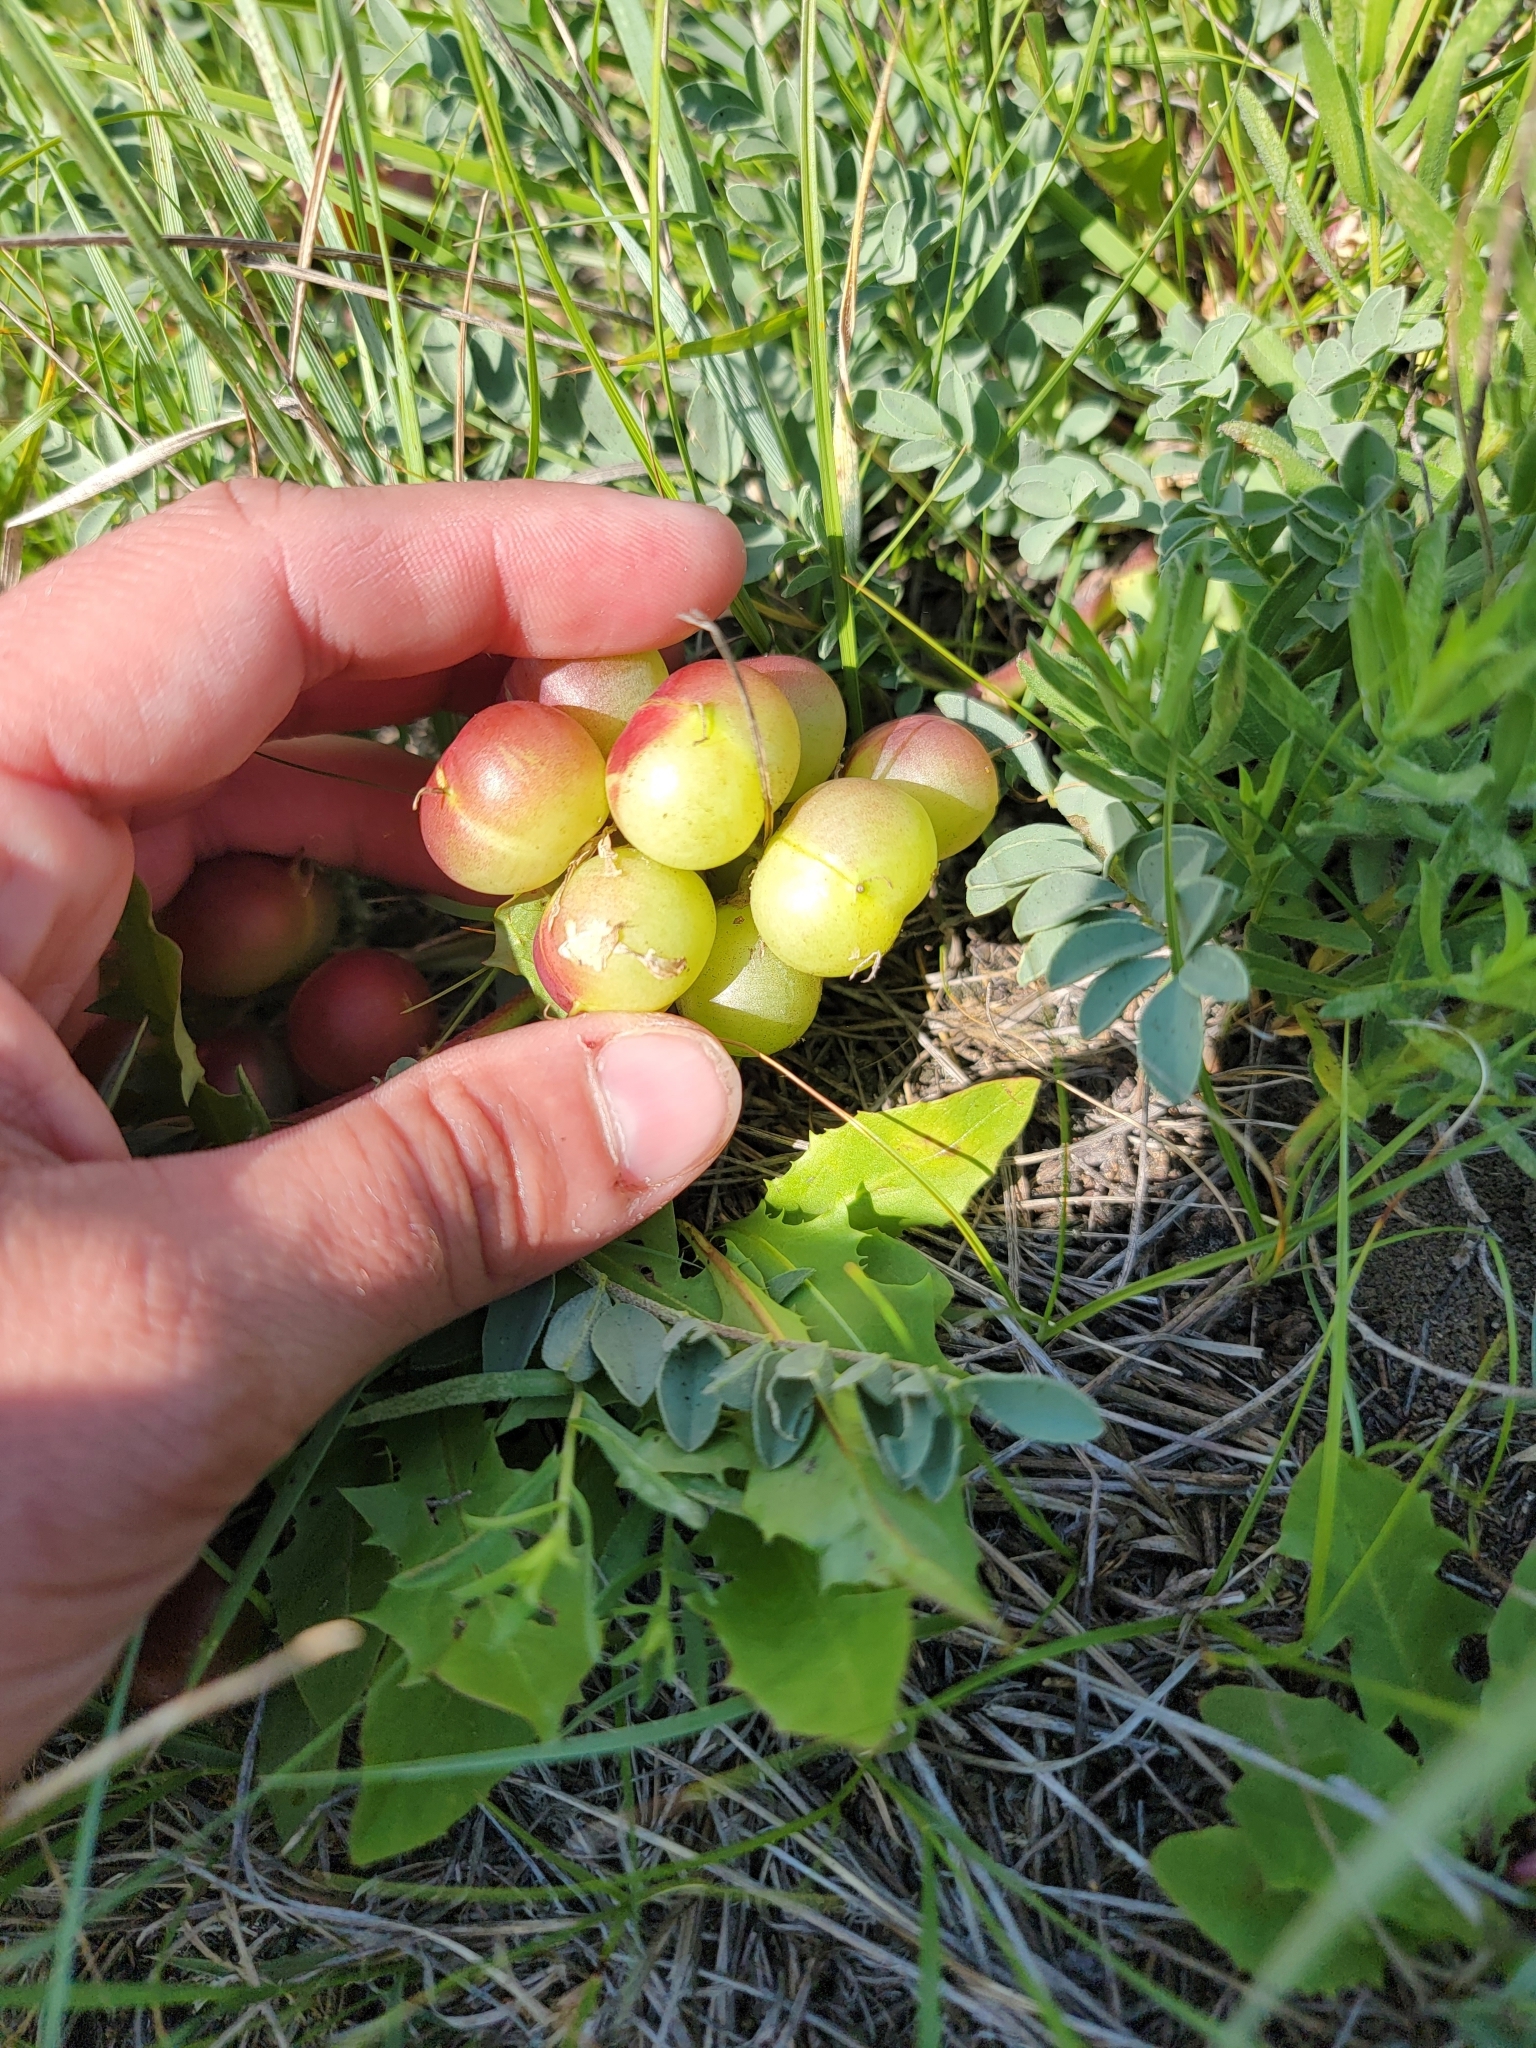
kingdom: Plantae
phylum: Tracheophyta
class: Magnoliopsida
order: Fabales
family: Fabaceae
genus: Astragalus
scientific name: Astragalus crassicarpus
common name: Ground-plum milk-vetch
